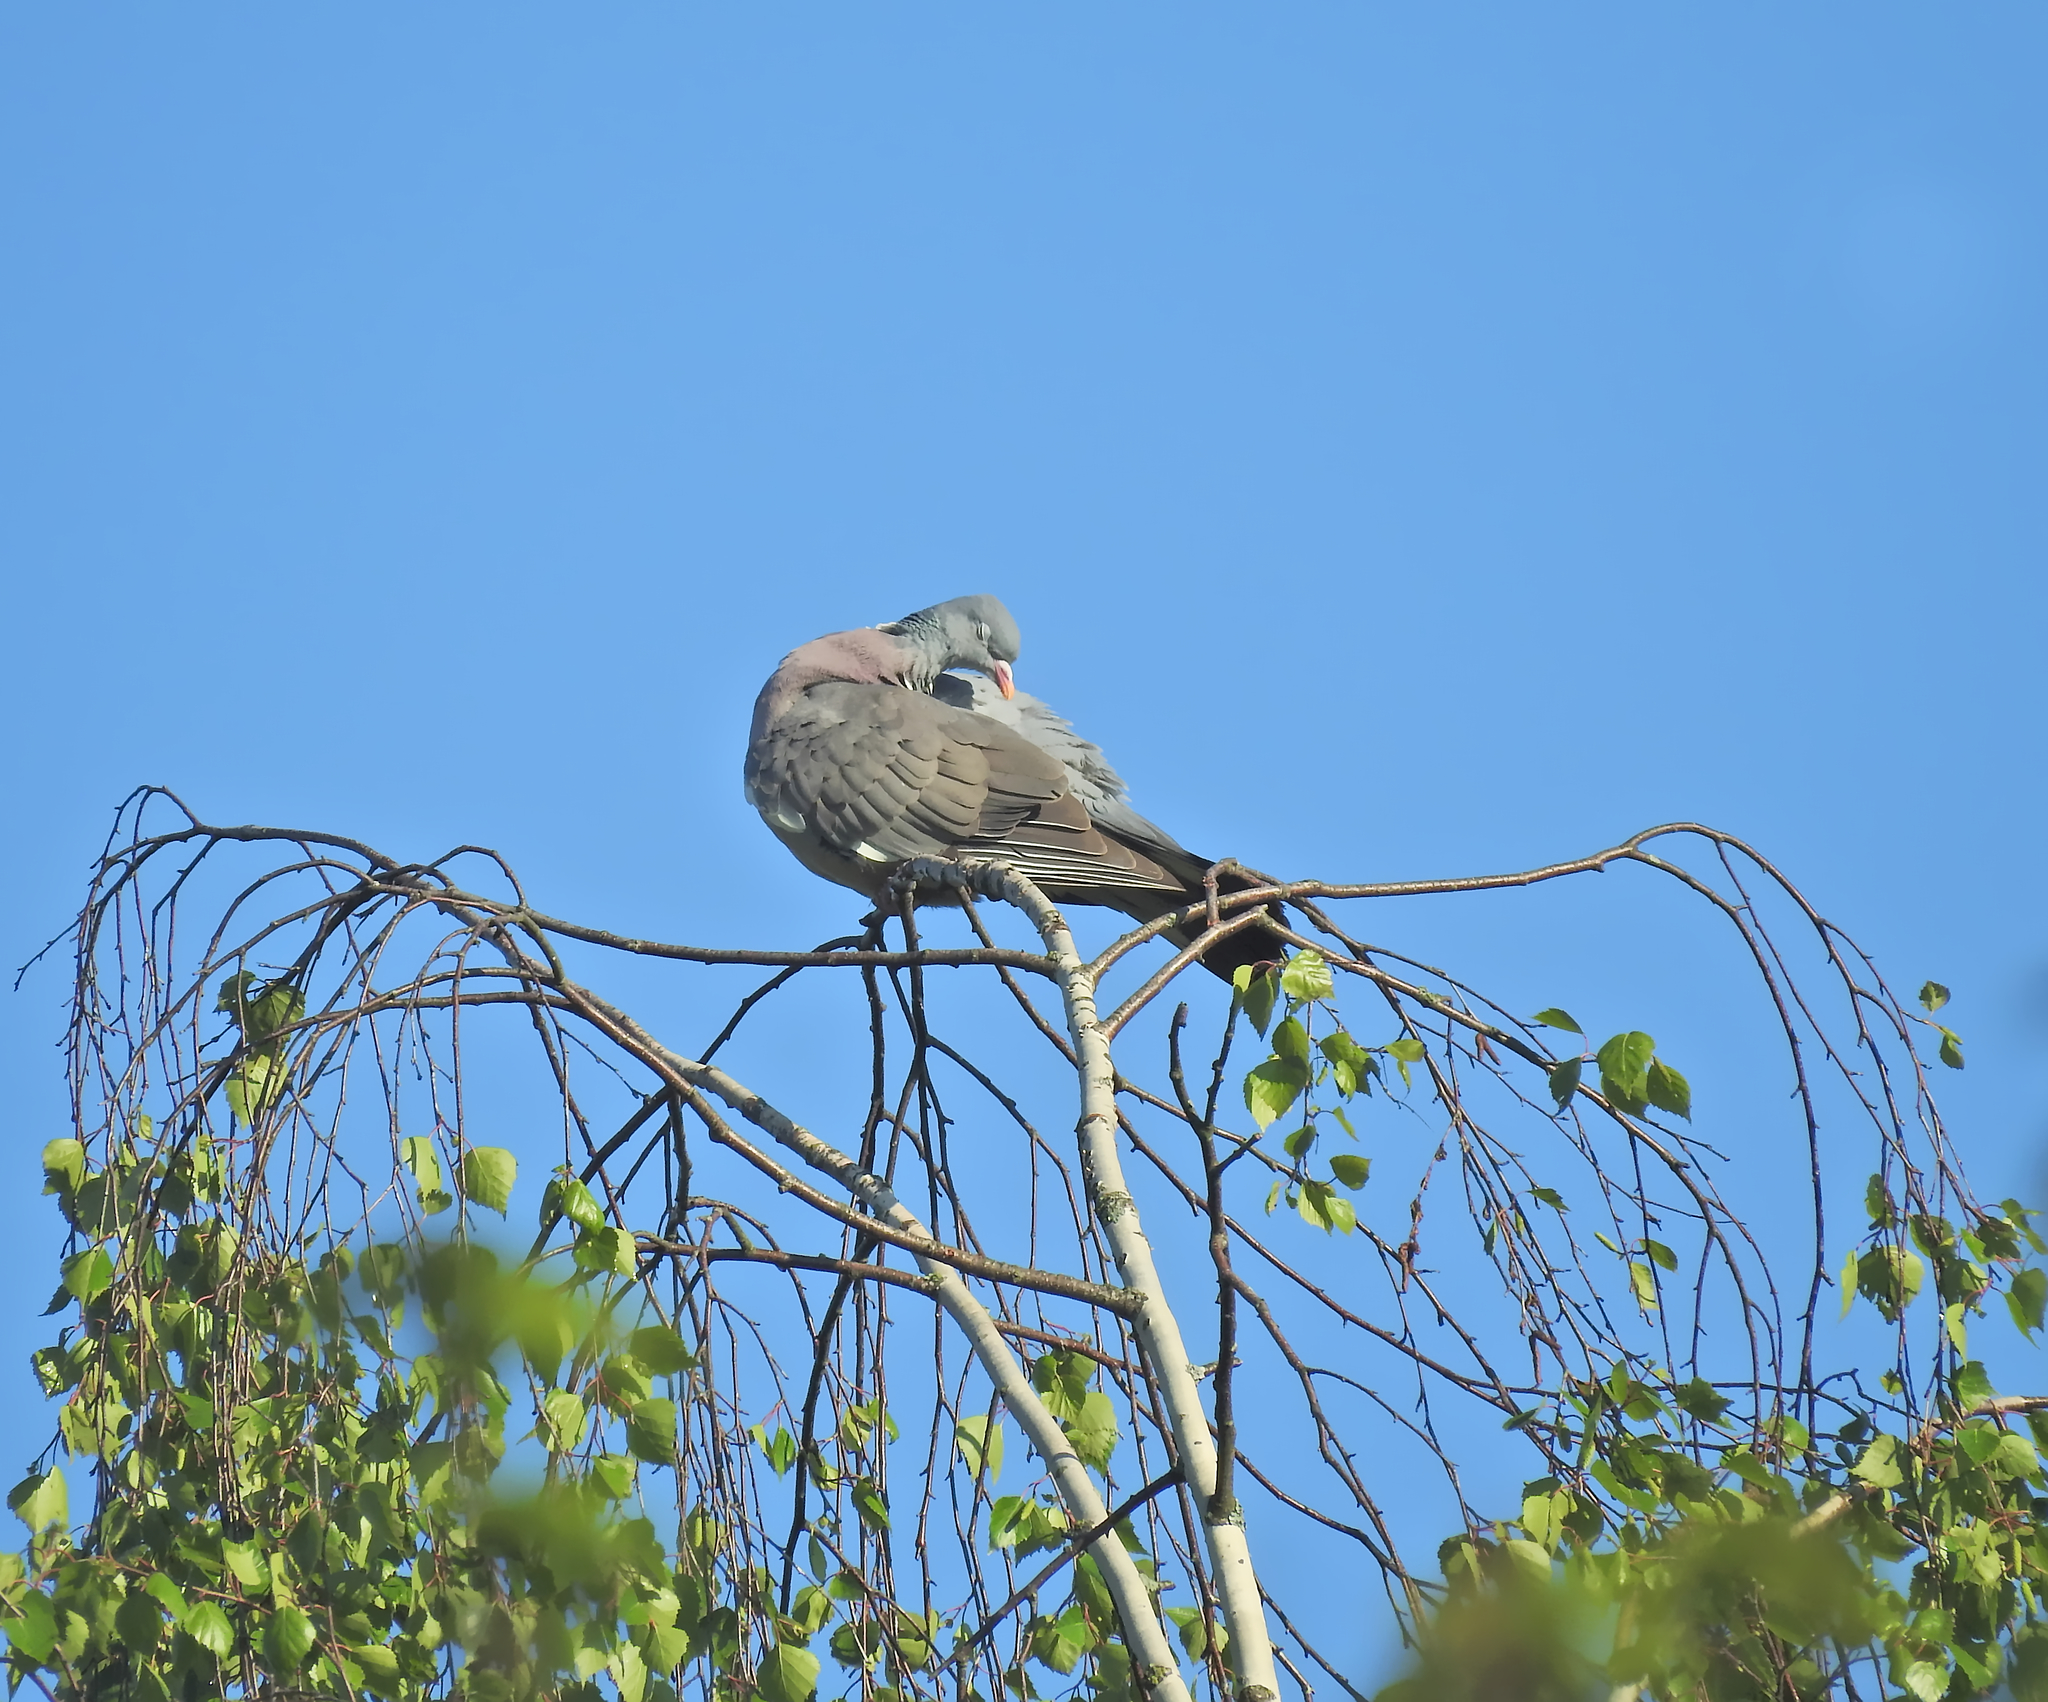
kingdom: Animalia
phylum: Chordata
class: Aves
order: Columbiformes
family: Columbidae
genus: Columba
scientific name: Columba palumbus
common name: Common wood pigeon
